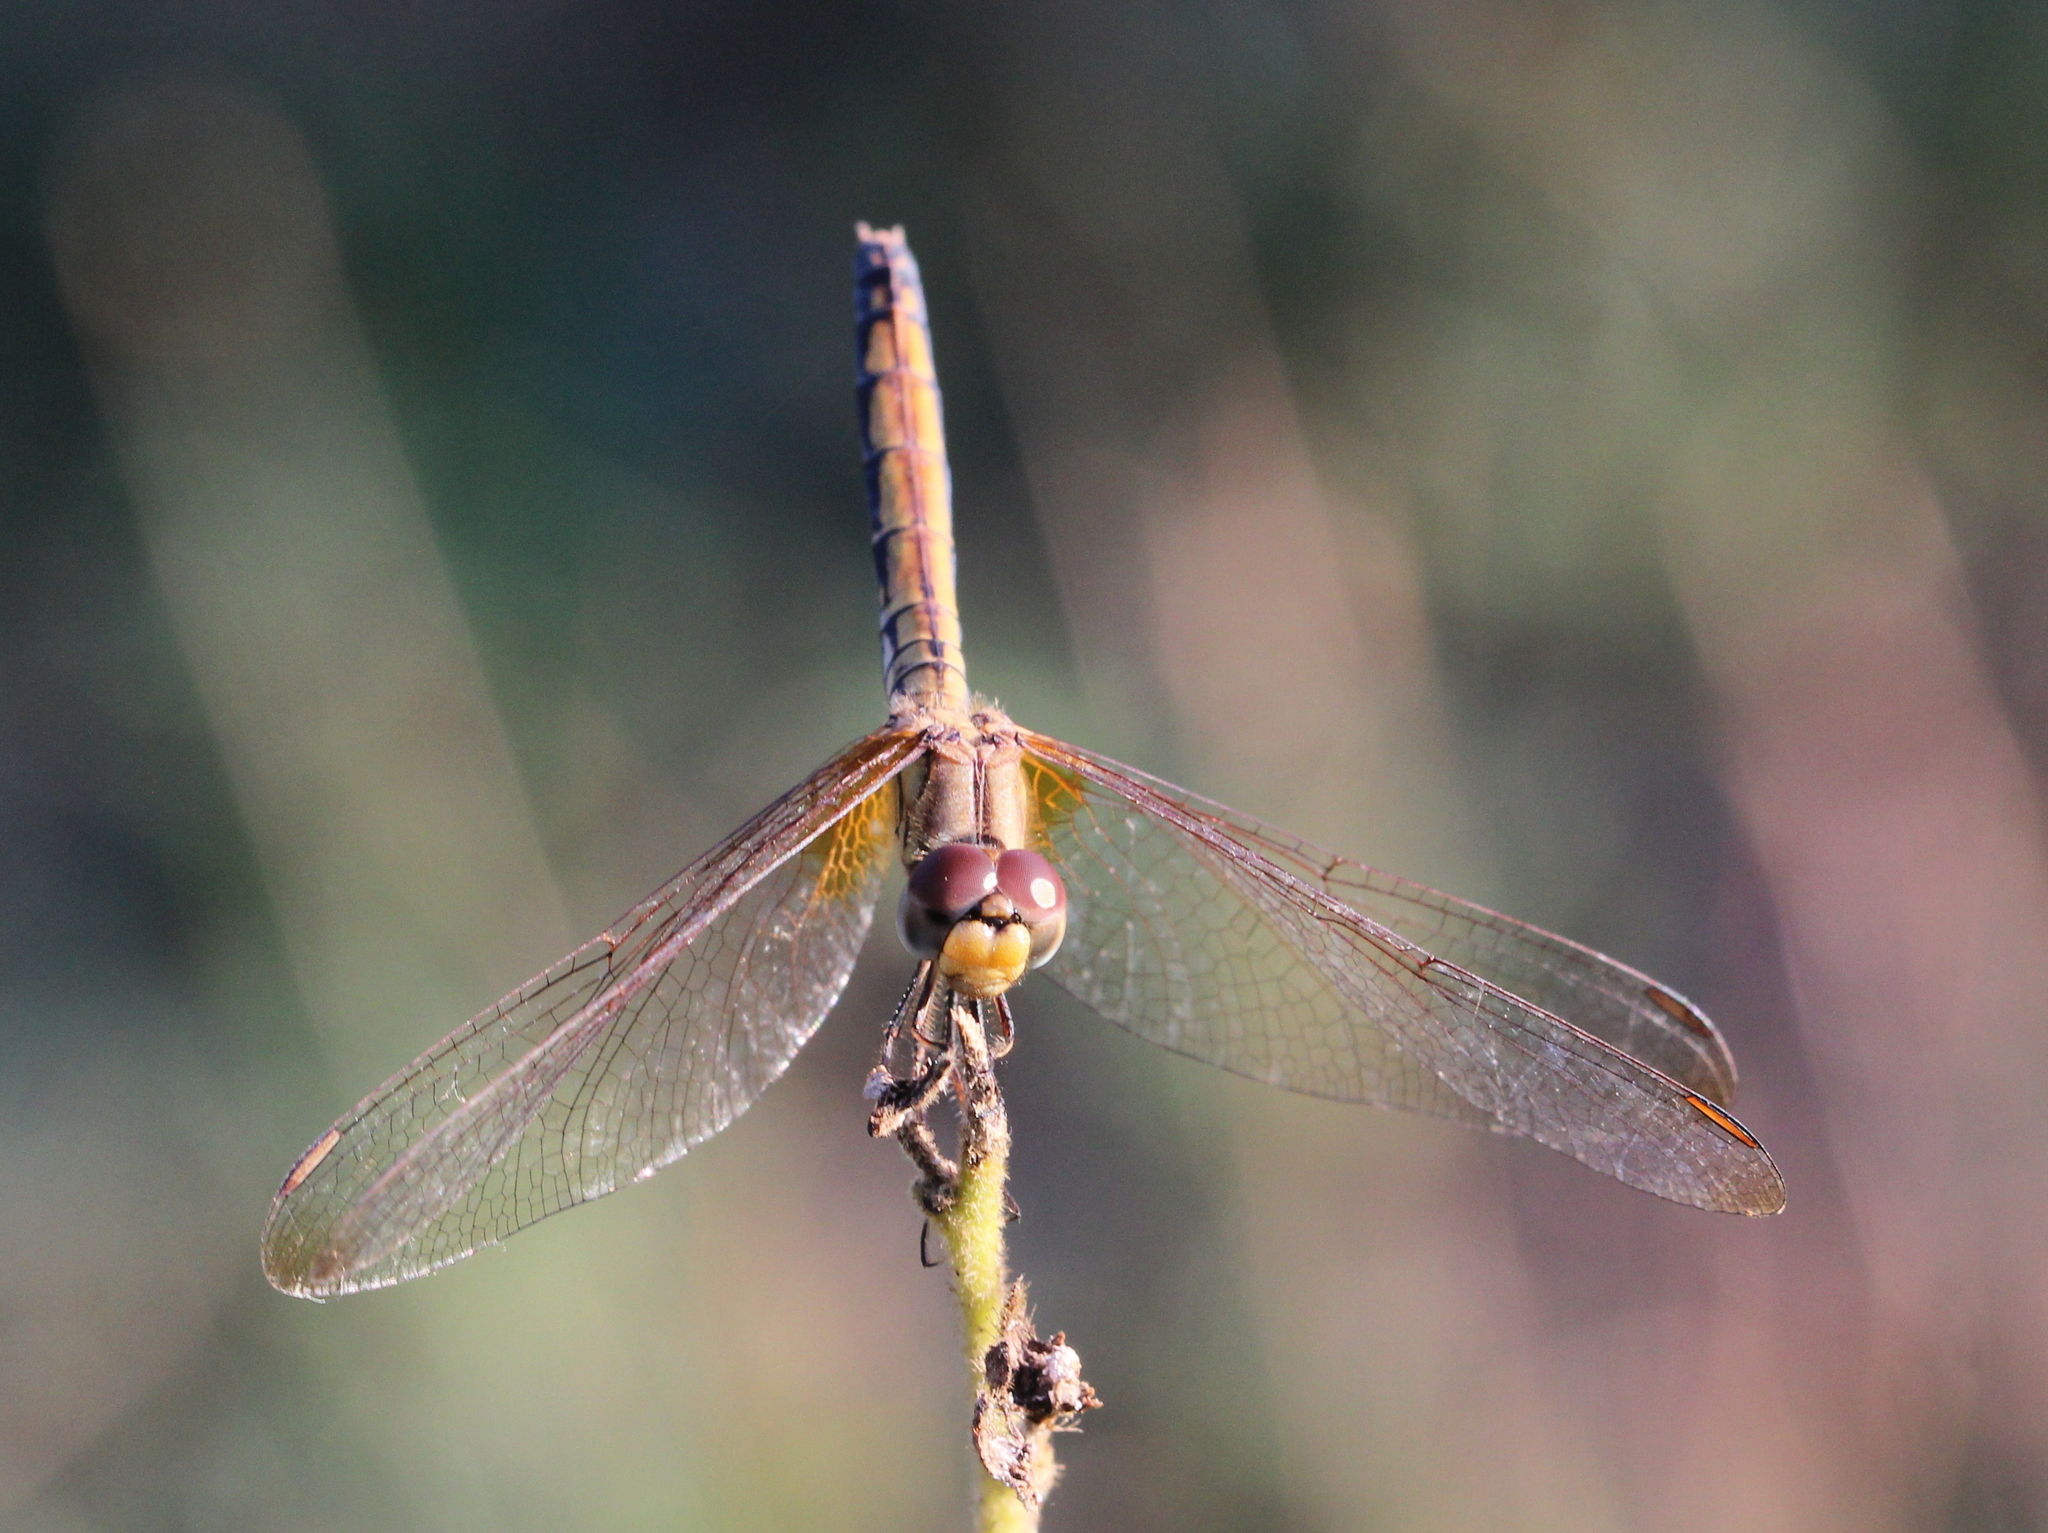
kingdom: Animalia
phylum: Arthropoda
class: Insecta
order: Odonata
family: Libellulidae
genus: Trithemis
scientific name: Trithemis aurora
